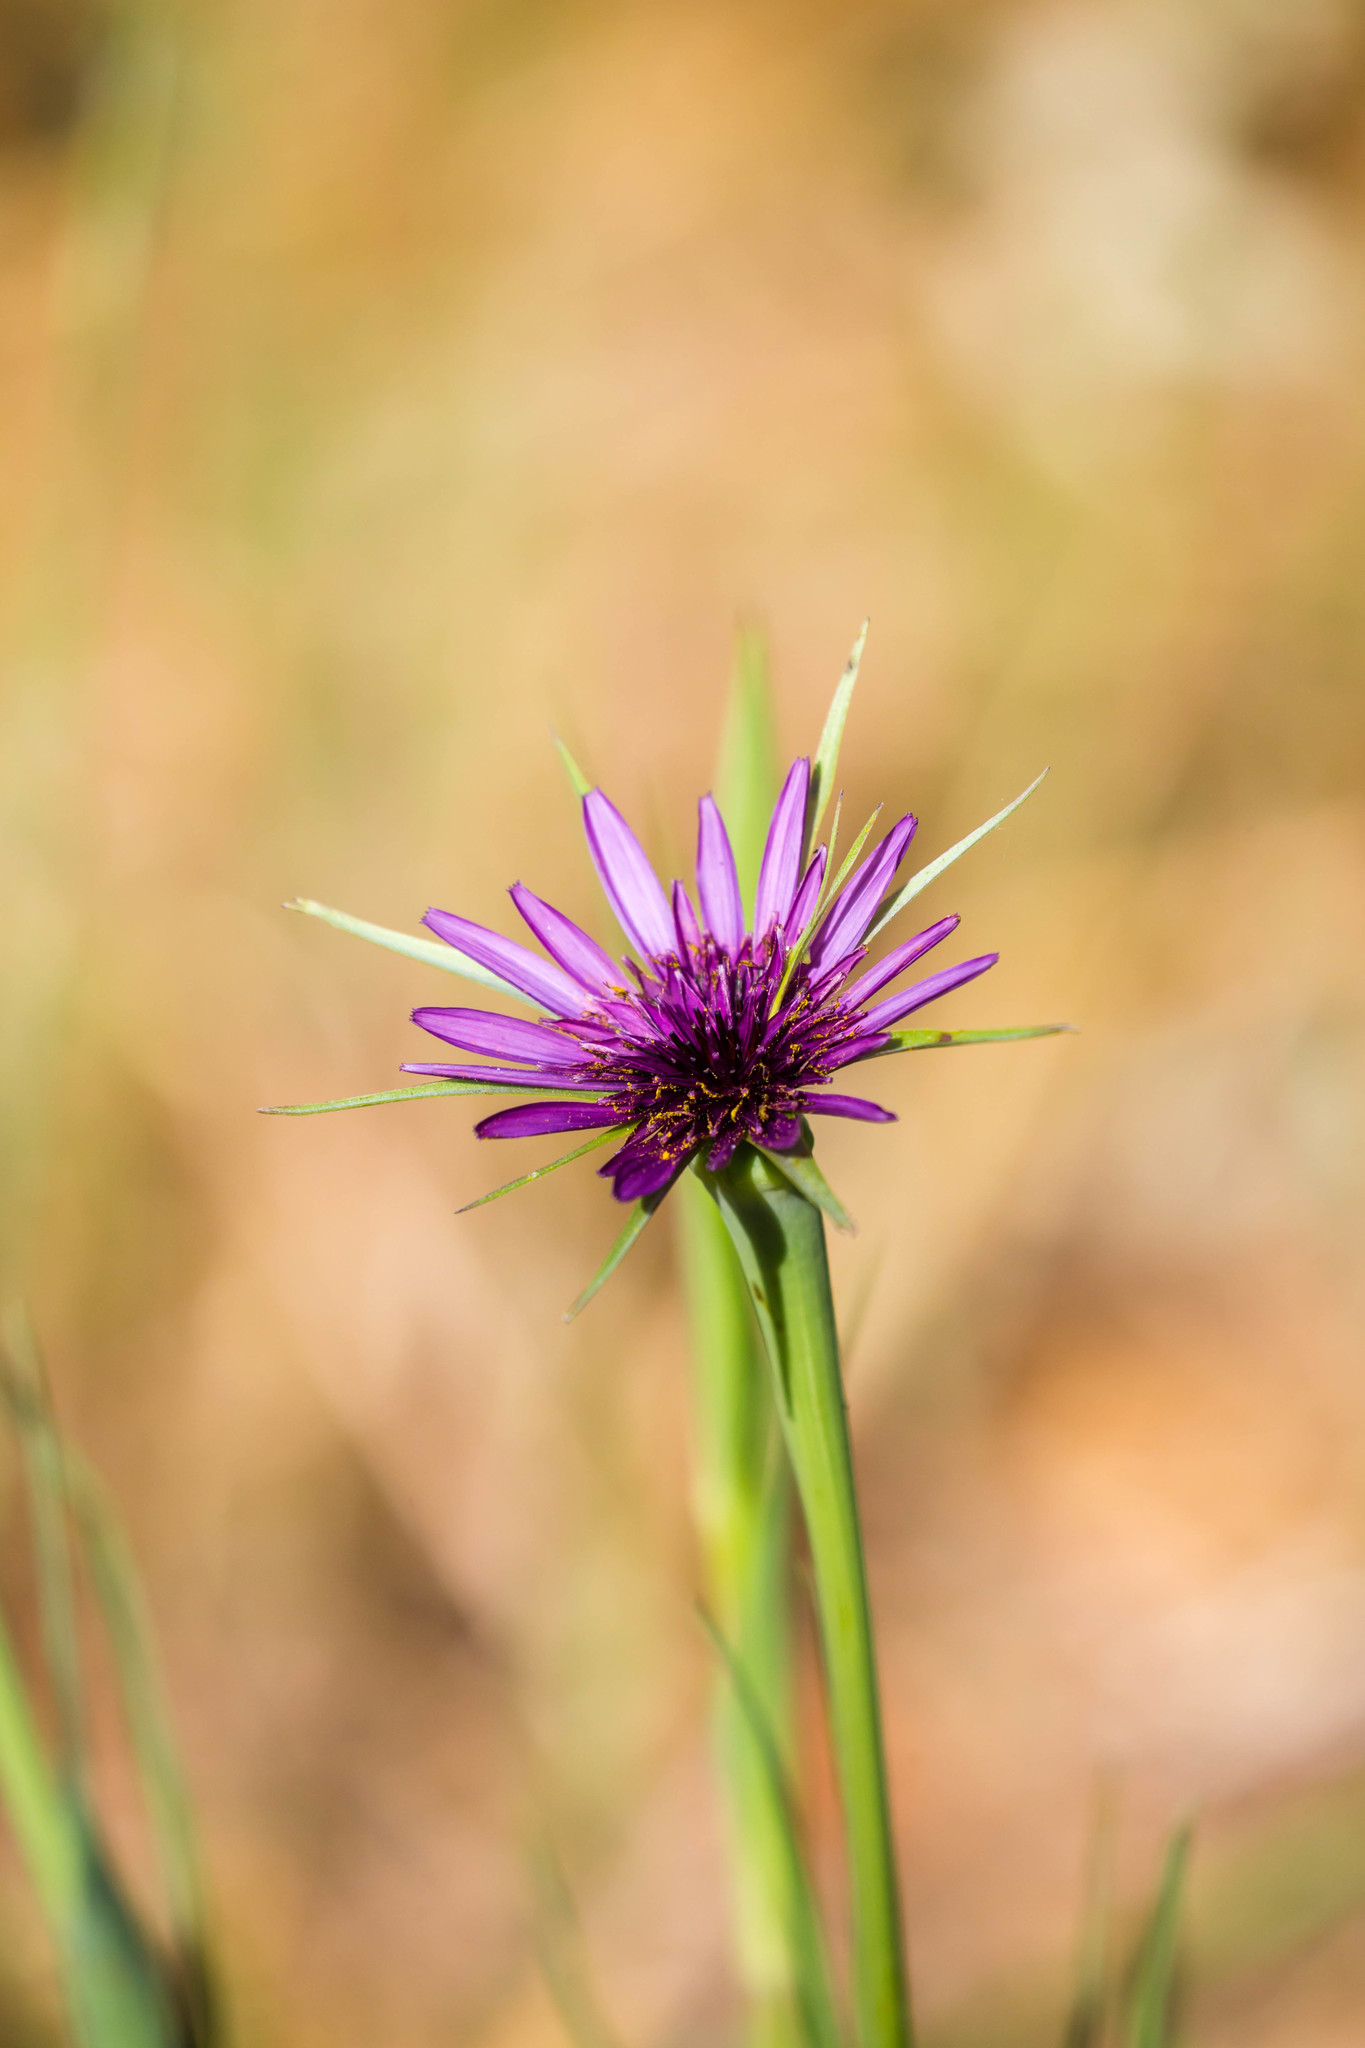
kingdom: Plantae
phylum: Tracheophyta
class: Magnoliopsida
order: Asterales
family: Asteraceae
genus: Tragopogon
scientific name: Tragopogon porrifolius
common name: Salsify
